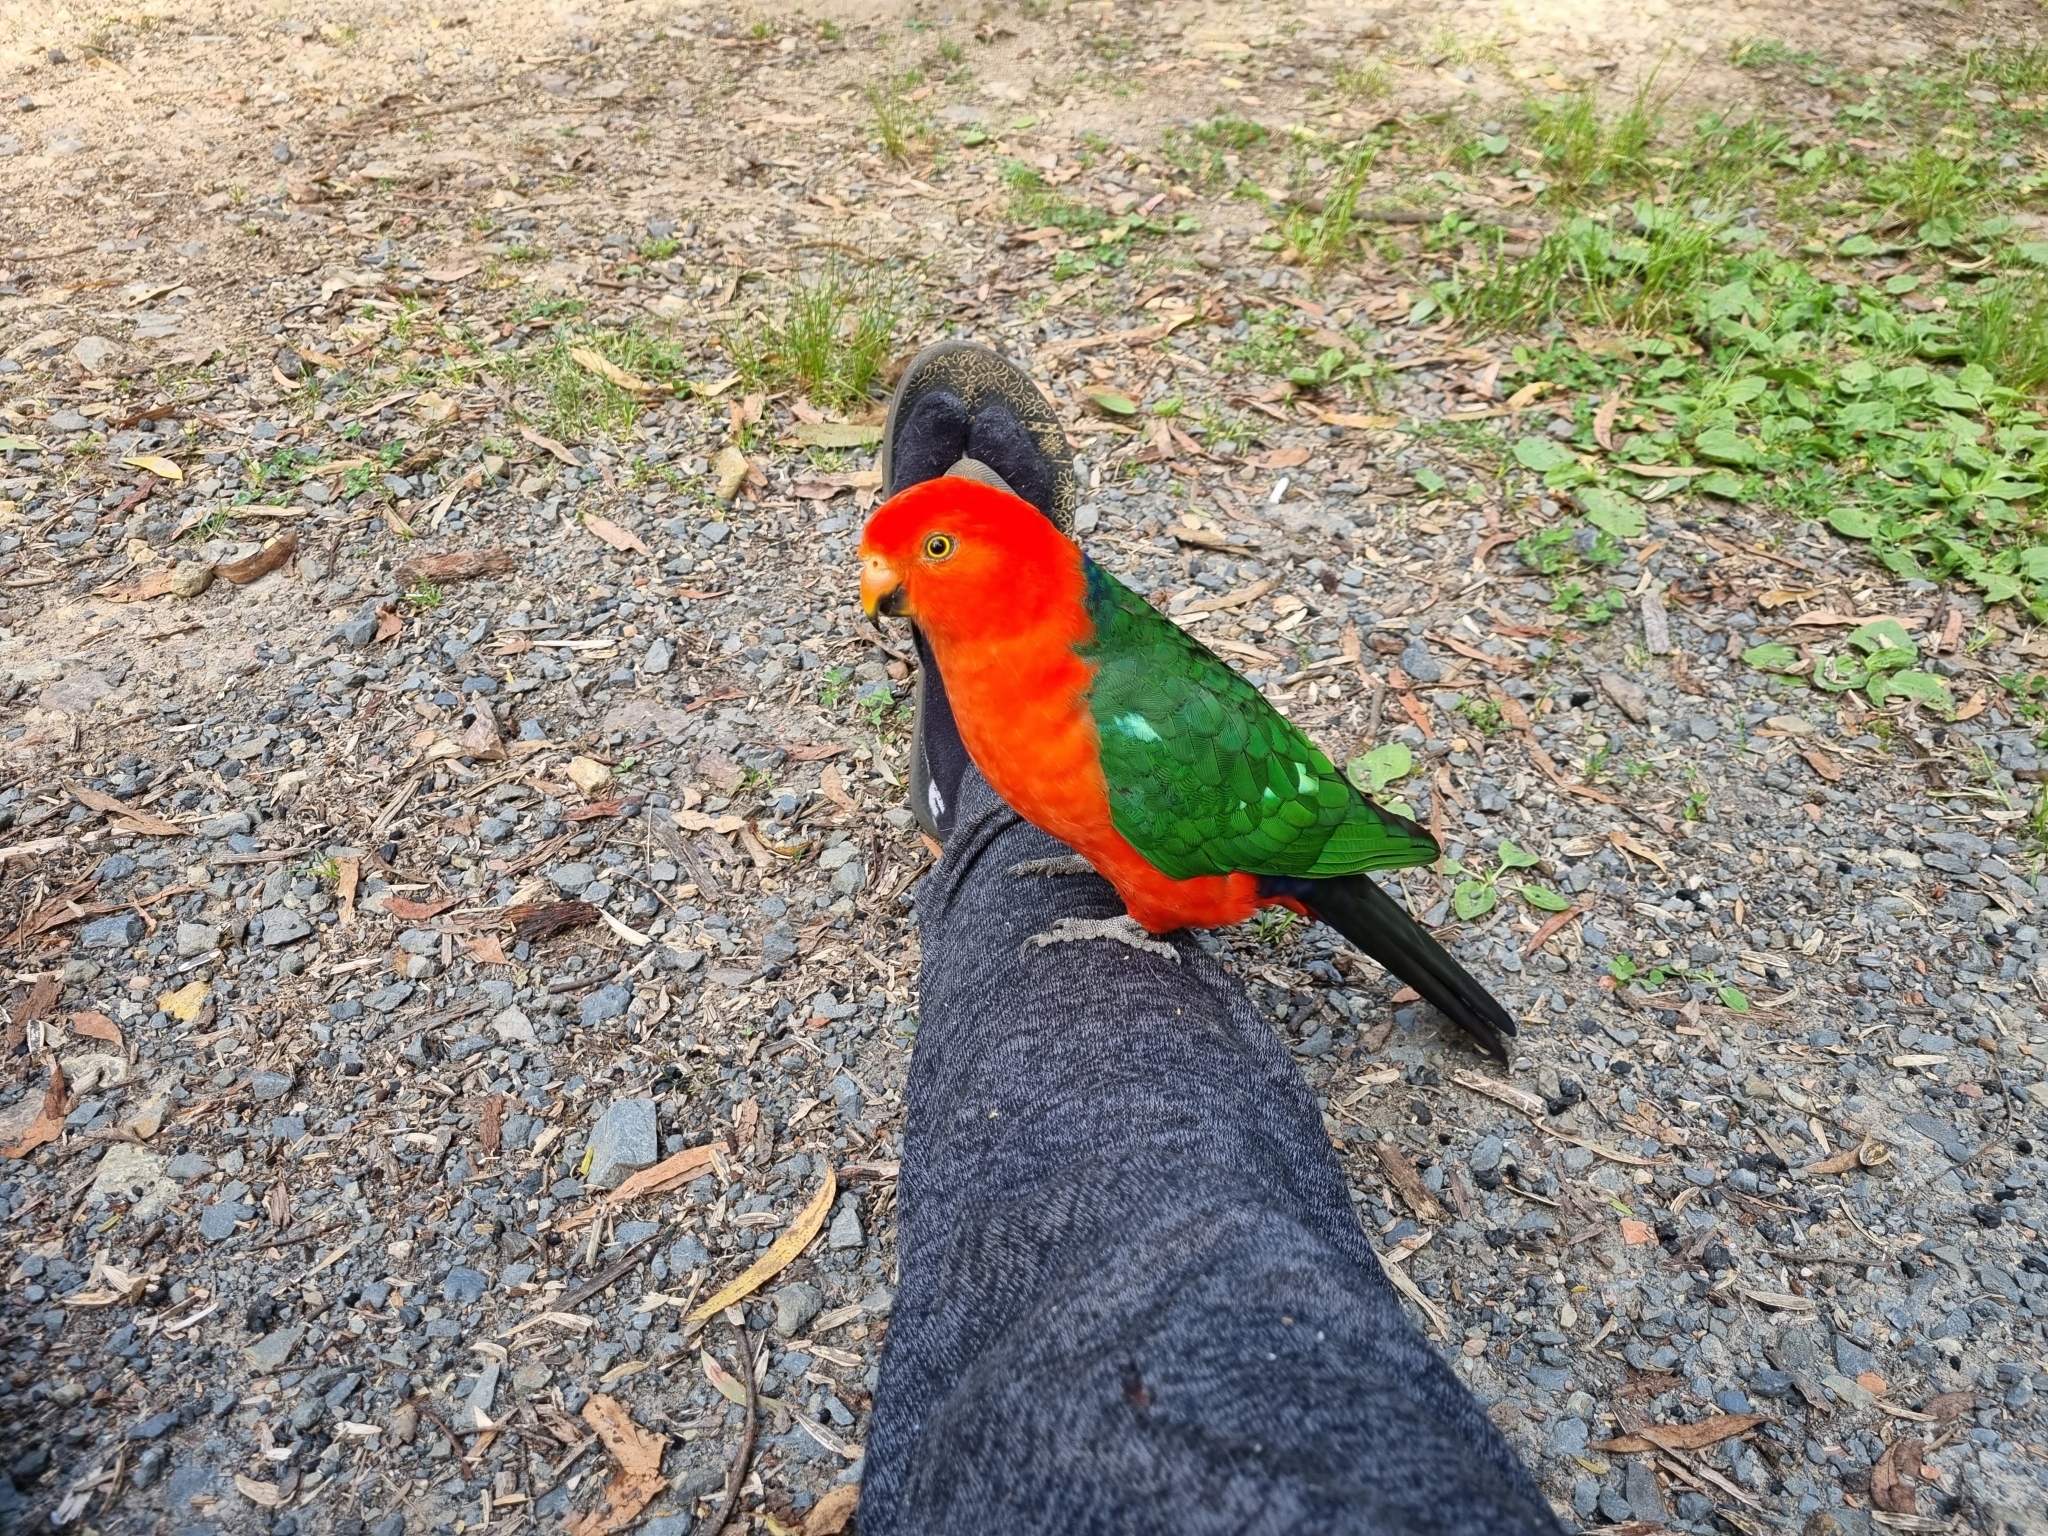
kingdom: Animalia
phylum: Chordata
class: Aves
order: Psittaciformes
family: Psittacidae
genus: Alisterus
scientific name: Alisterus scapularis
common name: Australian king parrot
